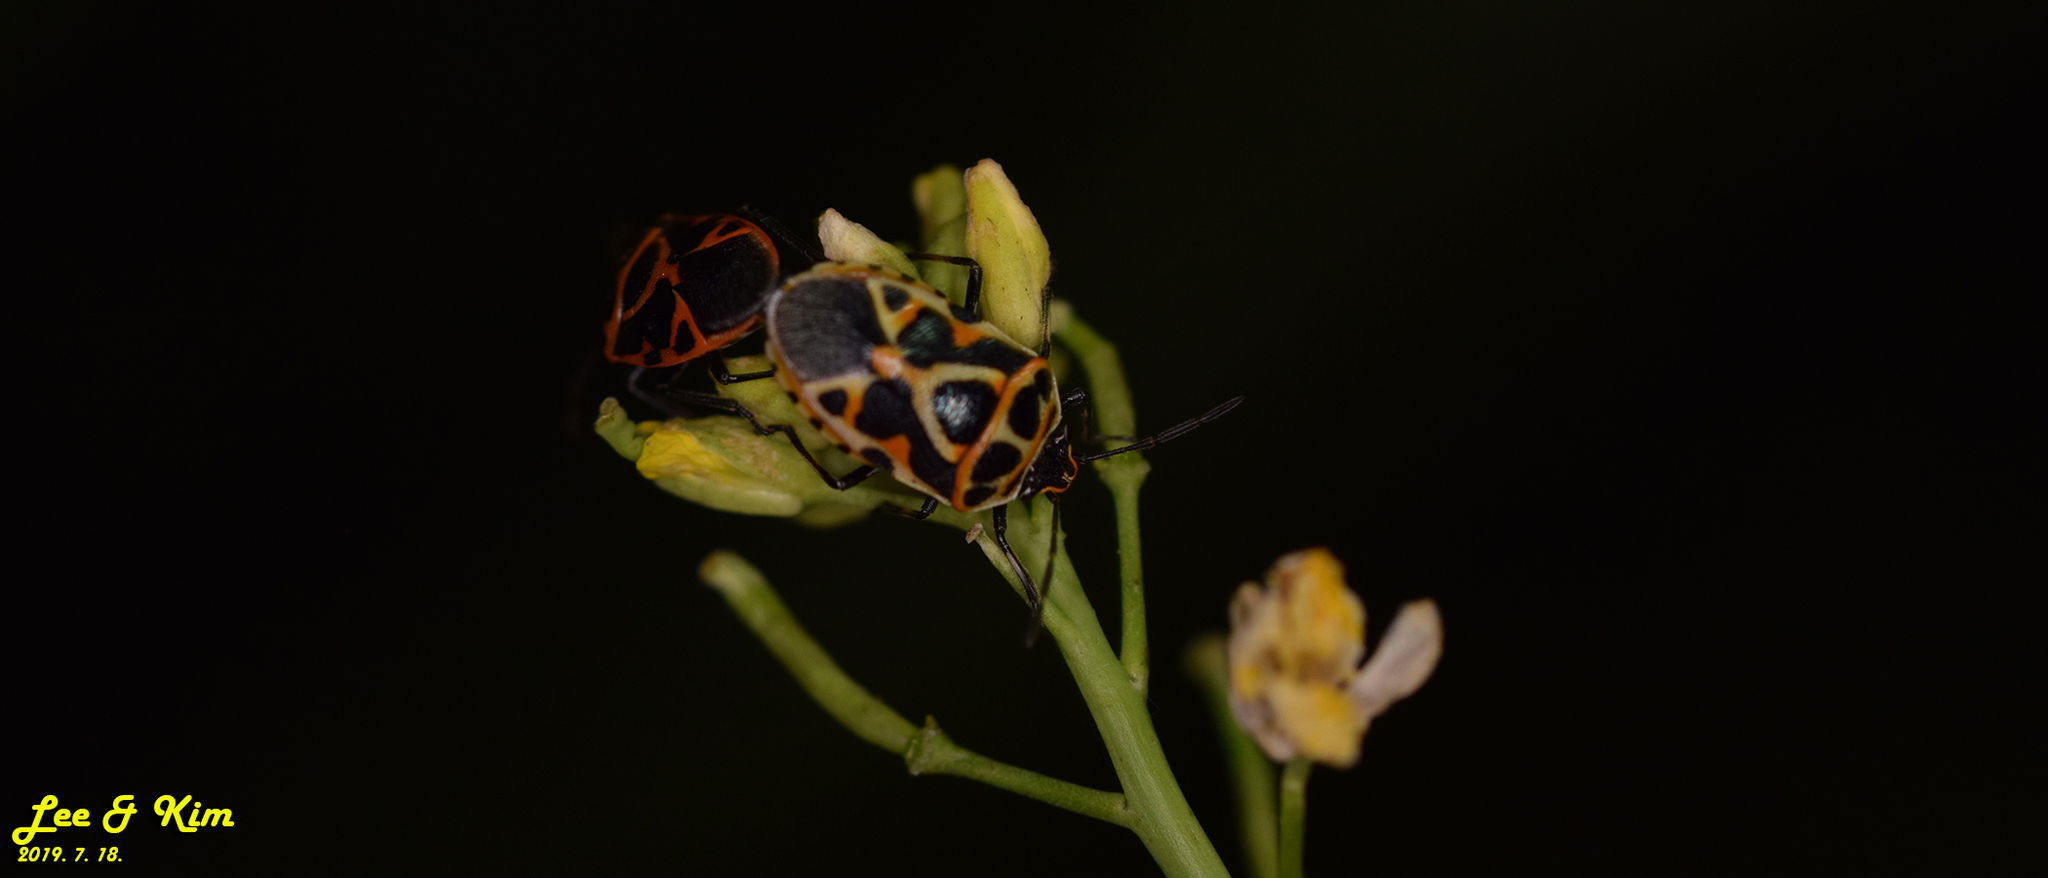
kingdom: Animalia
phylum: Arthropoda
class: Insecta
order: Hemiptera
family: Pentatomidae
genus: Eurydema
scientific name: Eurydema dominulus
